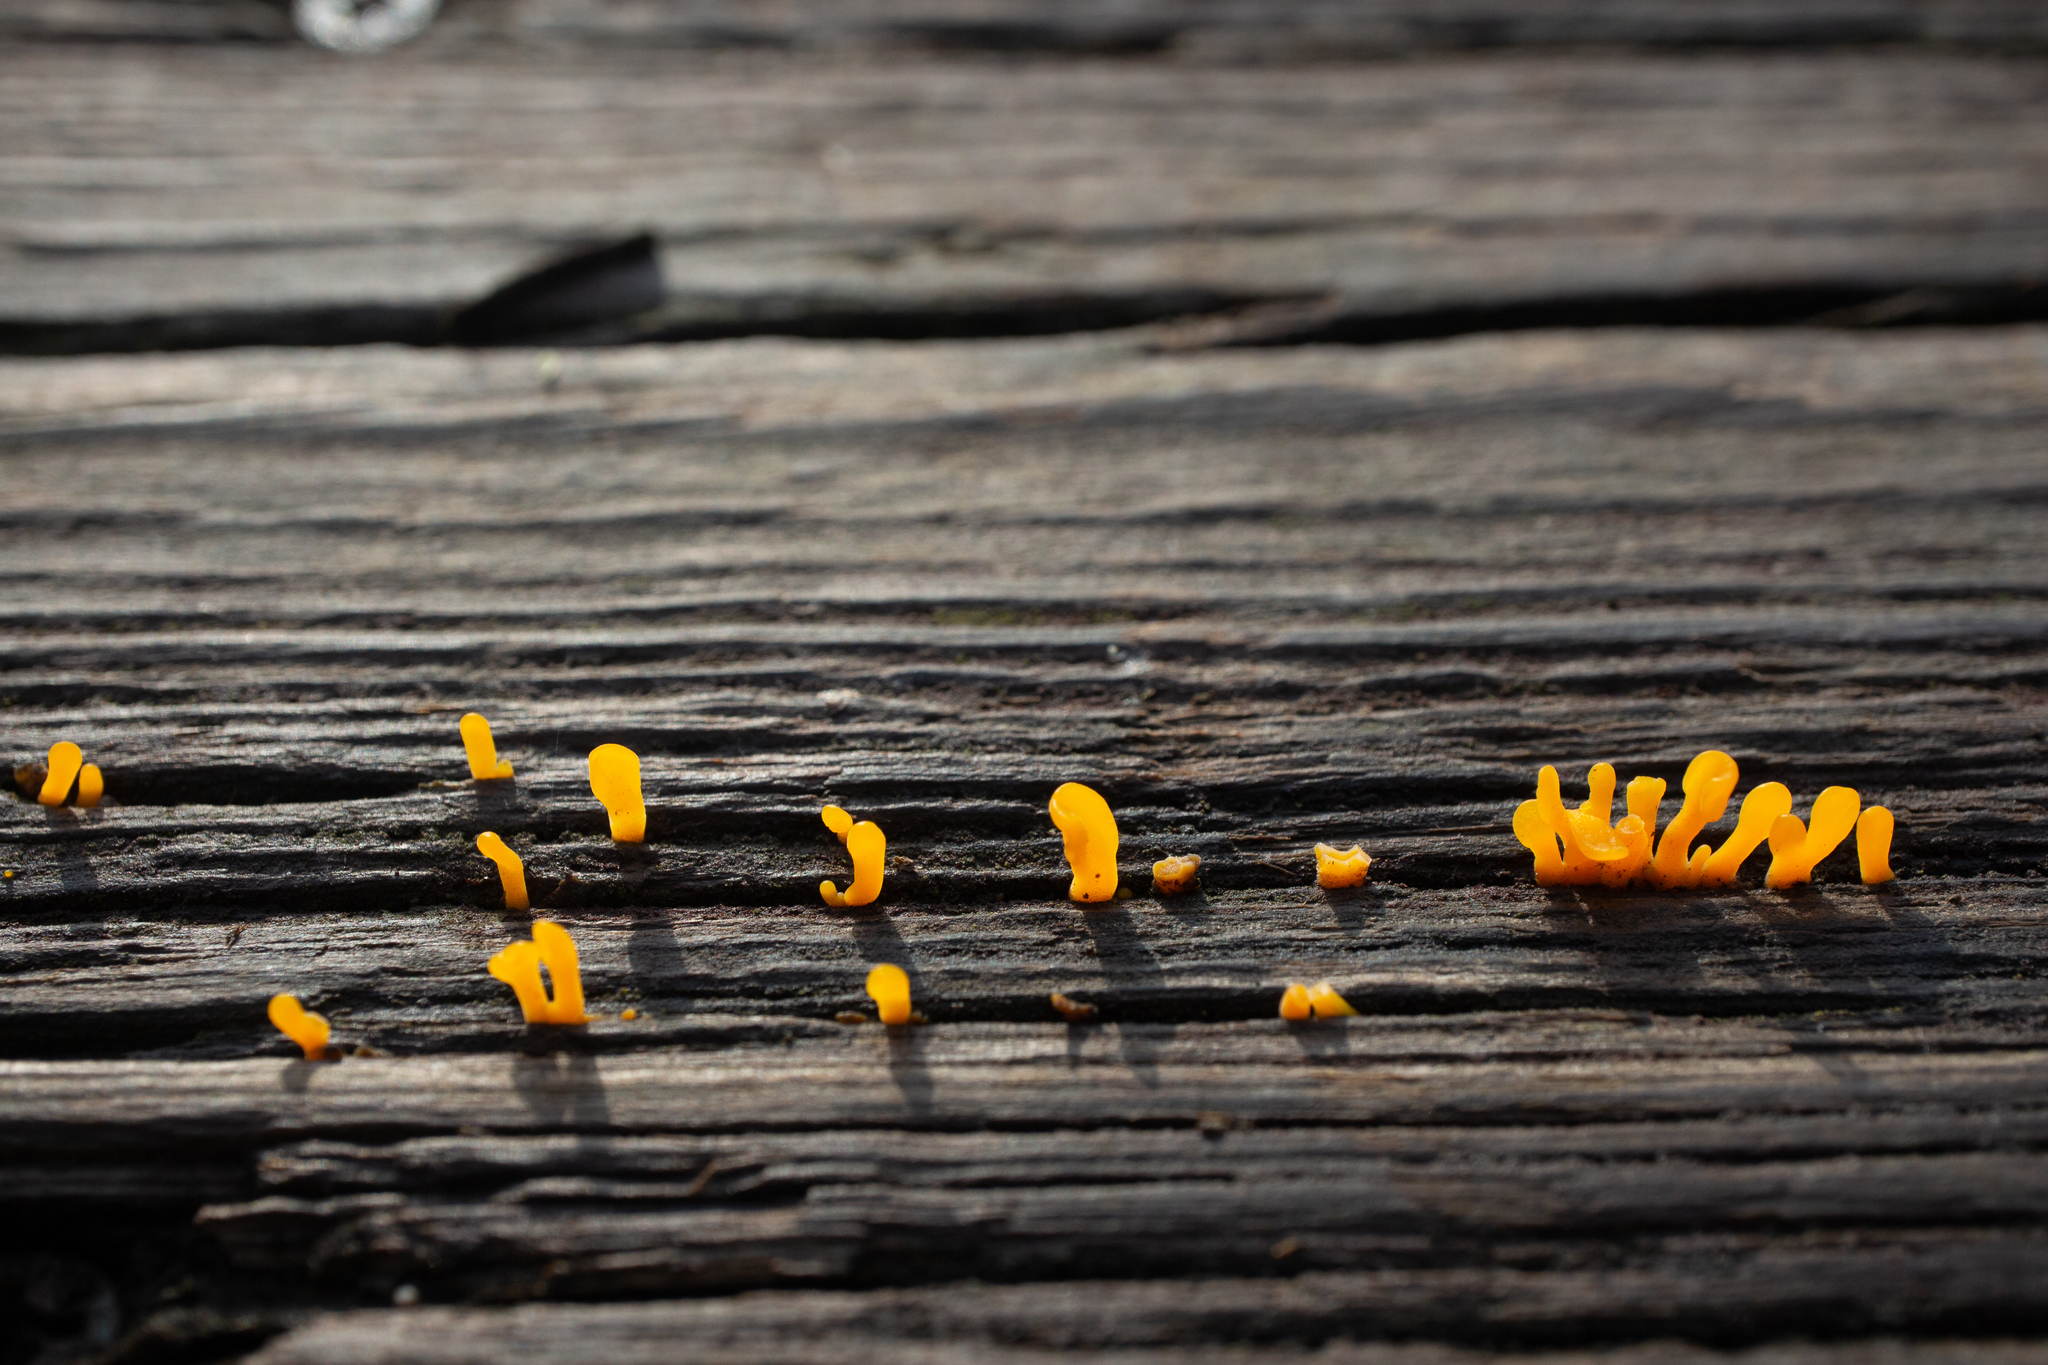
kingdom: Fungi
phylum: Basidiomycota
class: Dacrymycetes
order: Dacrymycetales
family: Dacrymycetaceae
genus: Dacrymyces
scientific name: Dacrymyces spathularius
